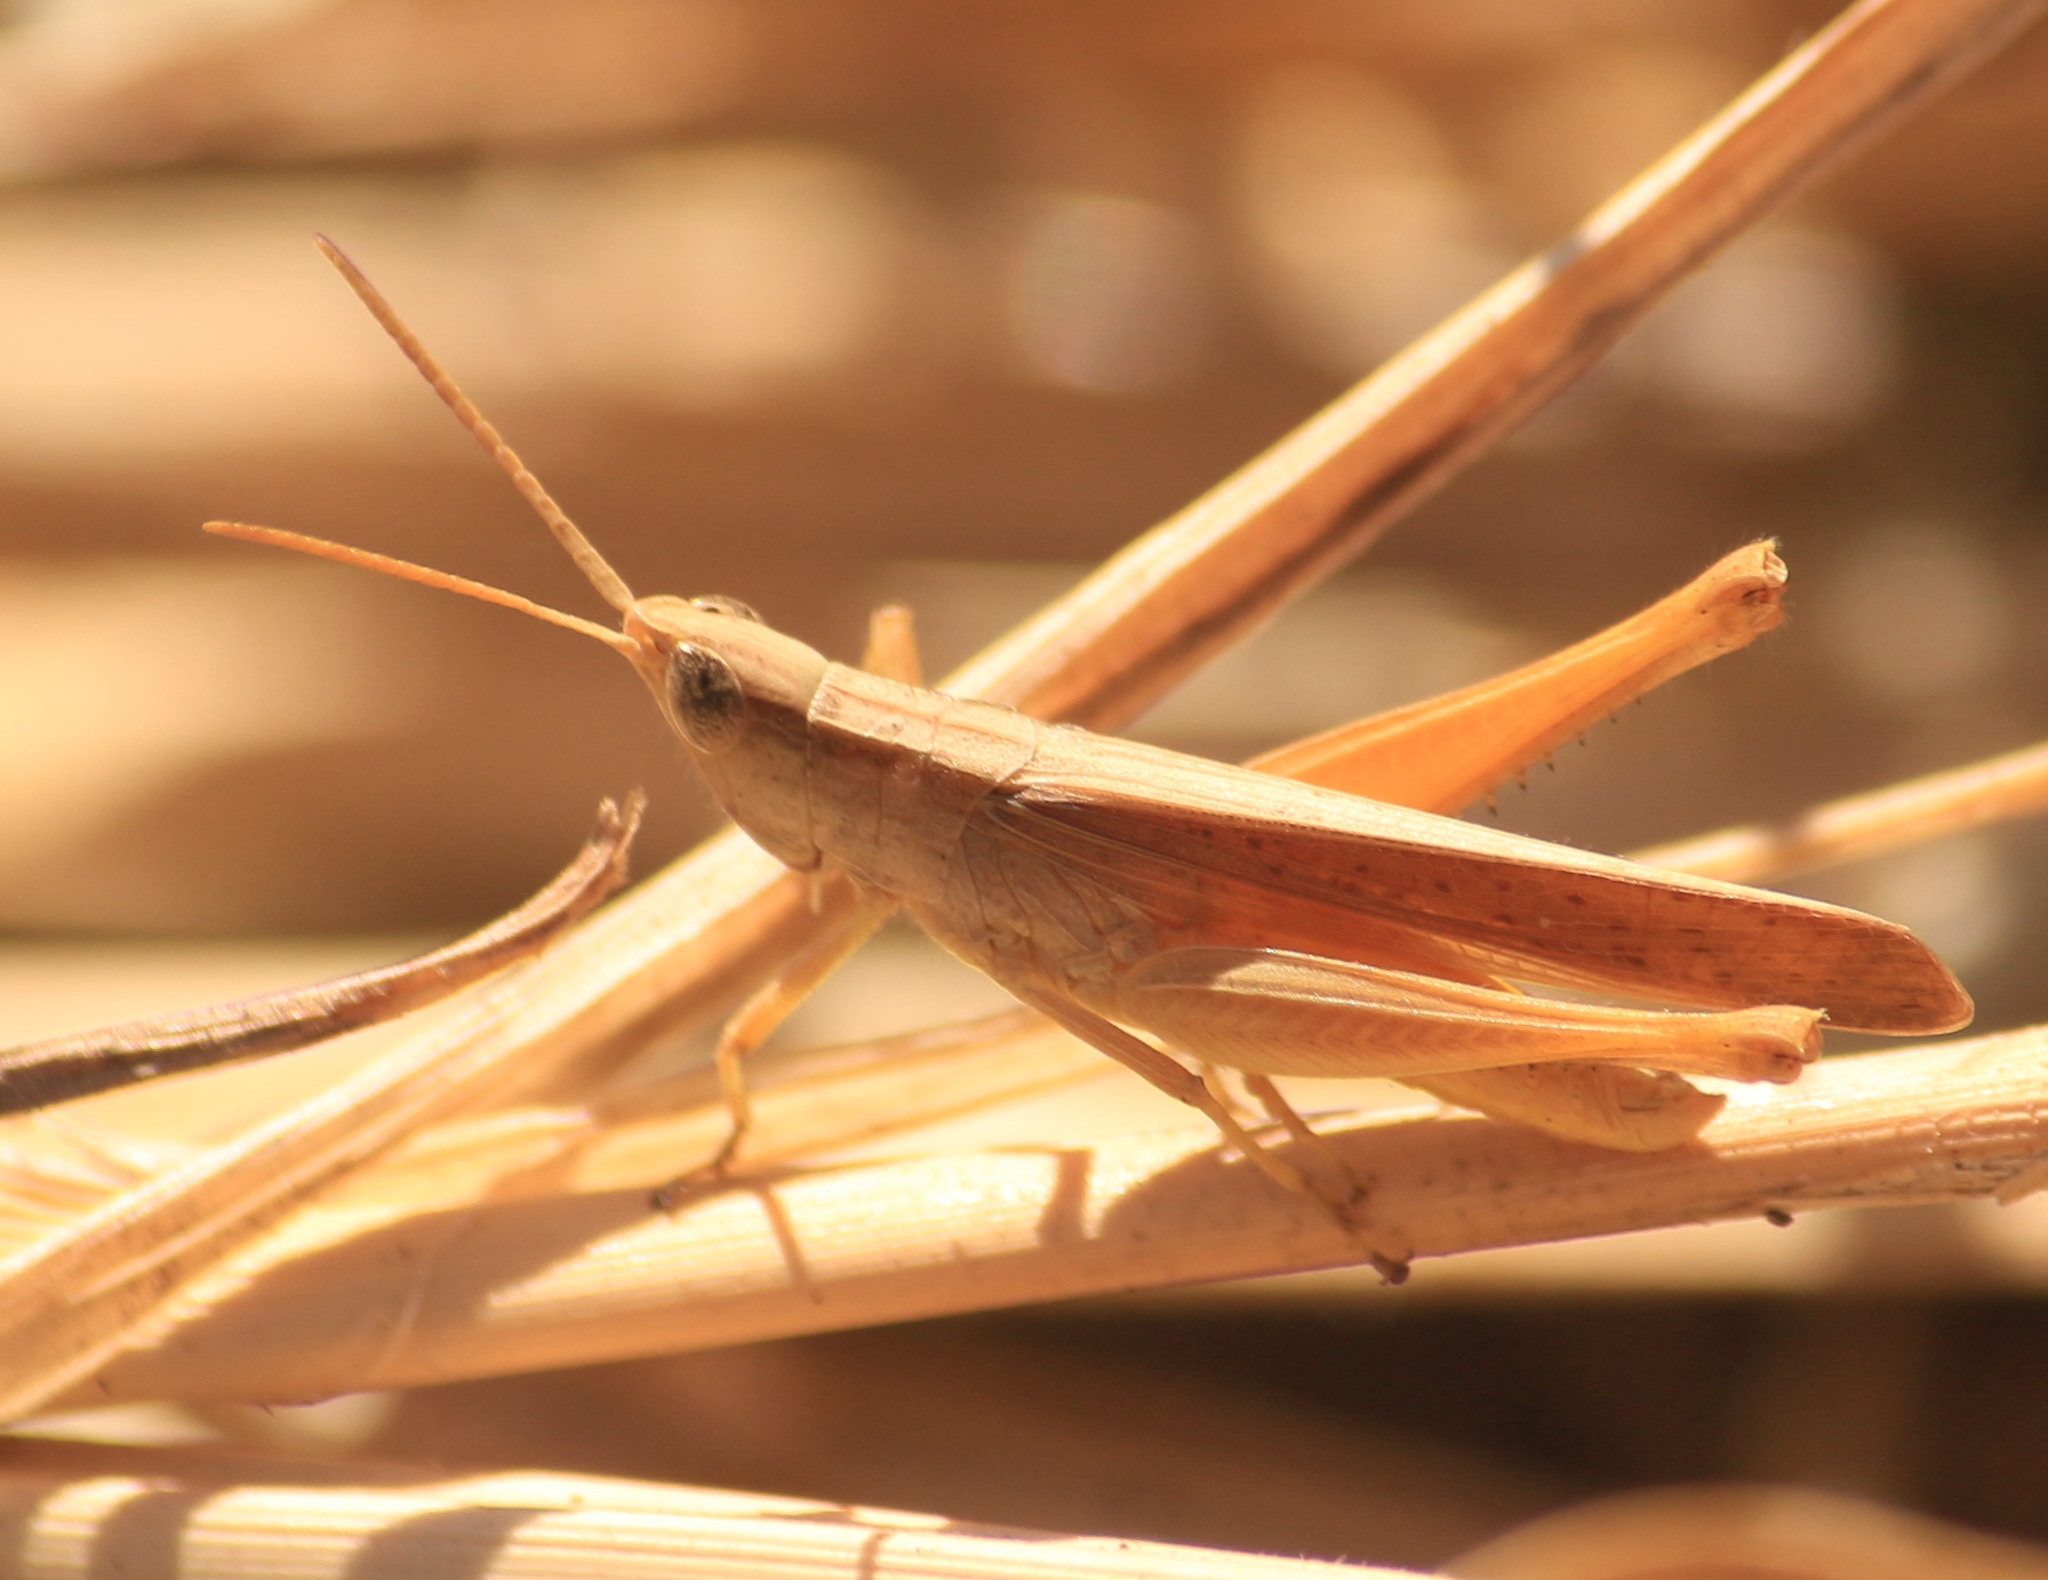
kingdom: Animalia
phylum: Arthropoda
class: Insecta
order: Orthoptera
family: Acrididae
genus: Eutryxalis
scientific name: Eutryxalis filata
